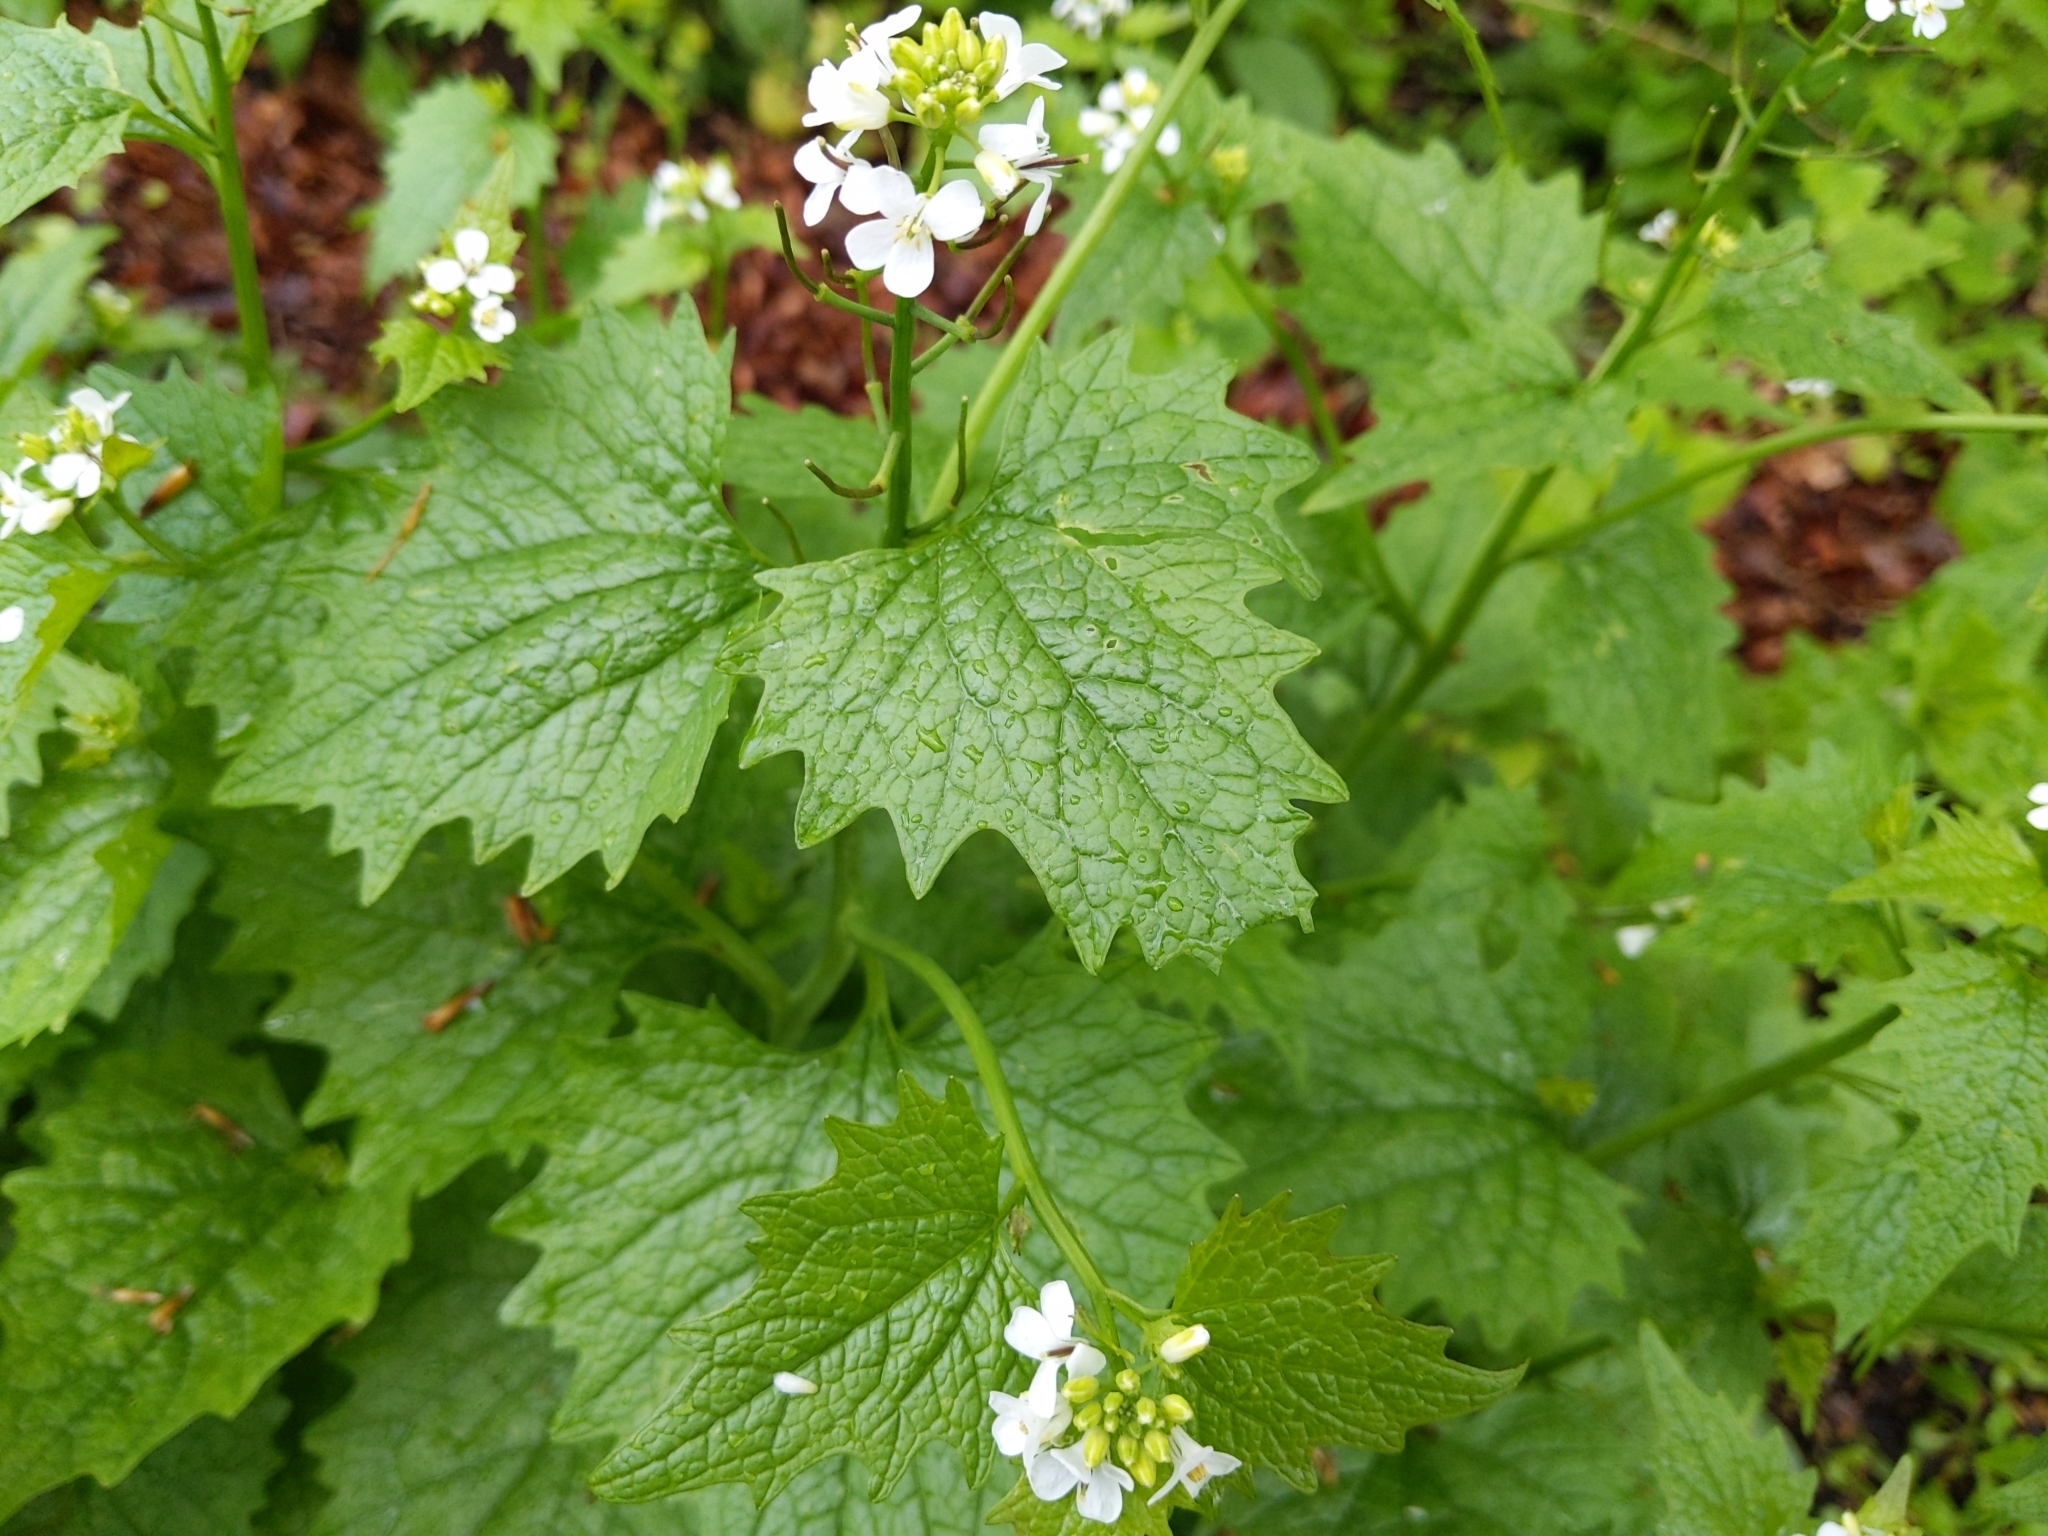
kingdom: Plantae
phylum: Tracheophyta
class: Magnoliopsida
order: Brassicales
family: Brassicaceae
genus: Alliaria
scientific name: Alliaria petiolata
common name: Garlic mustard
